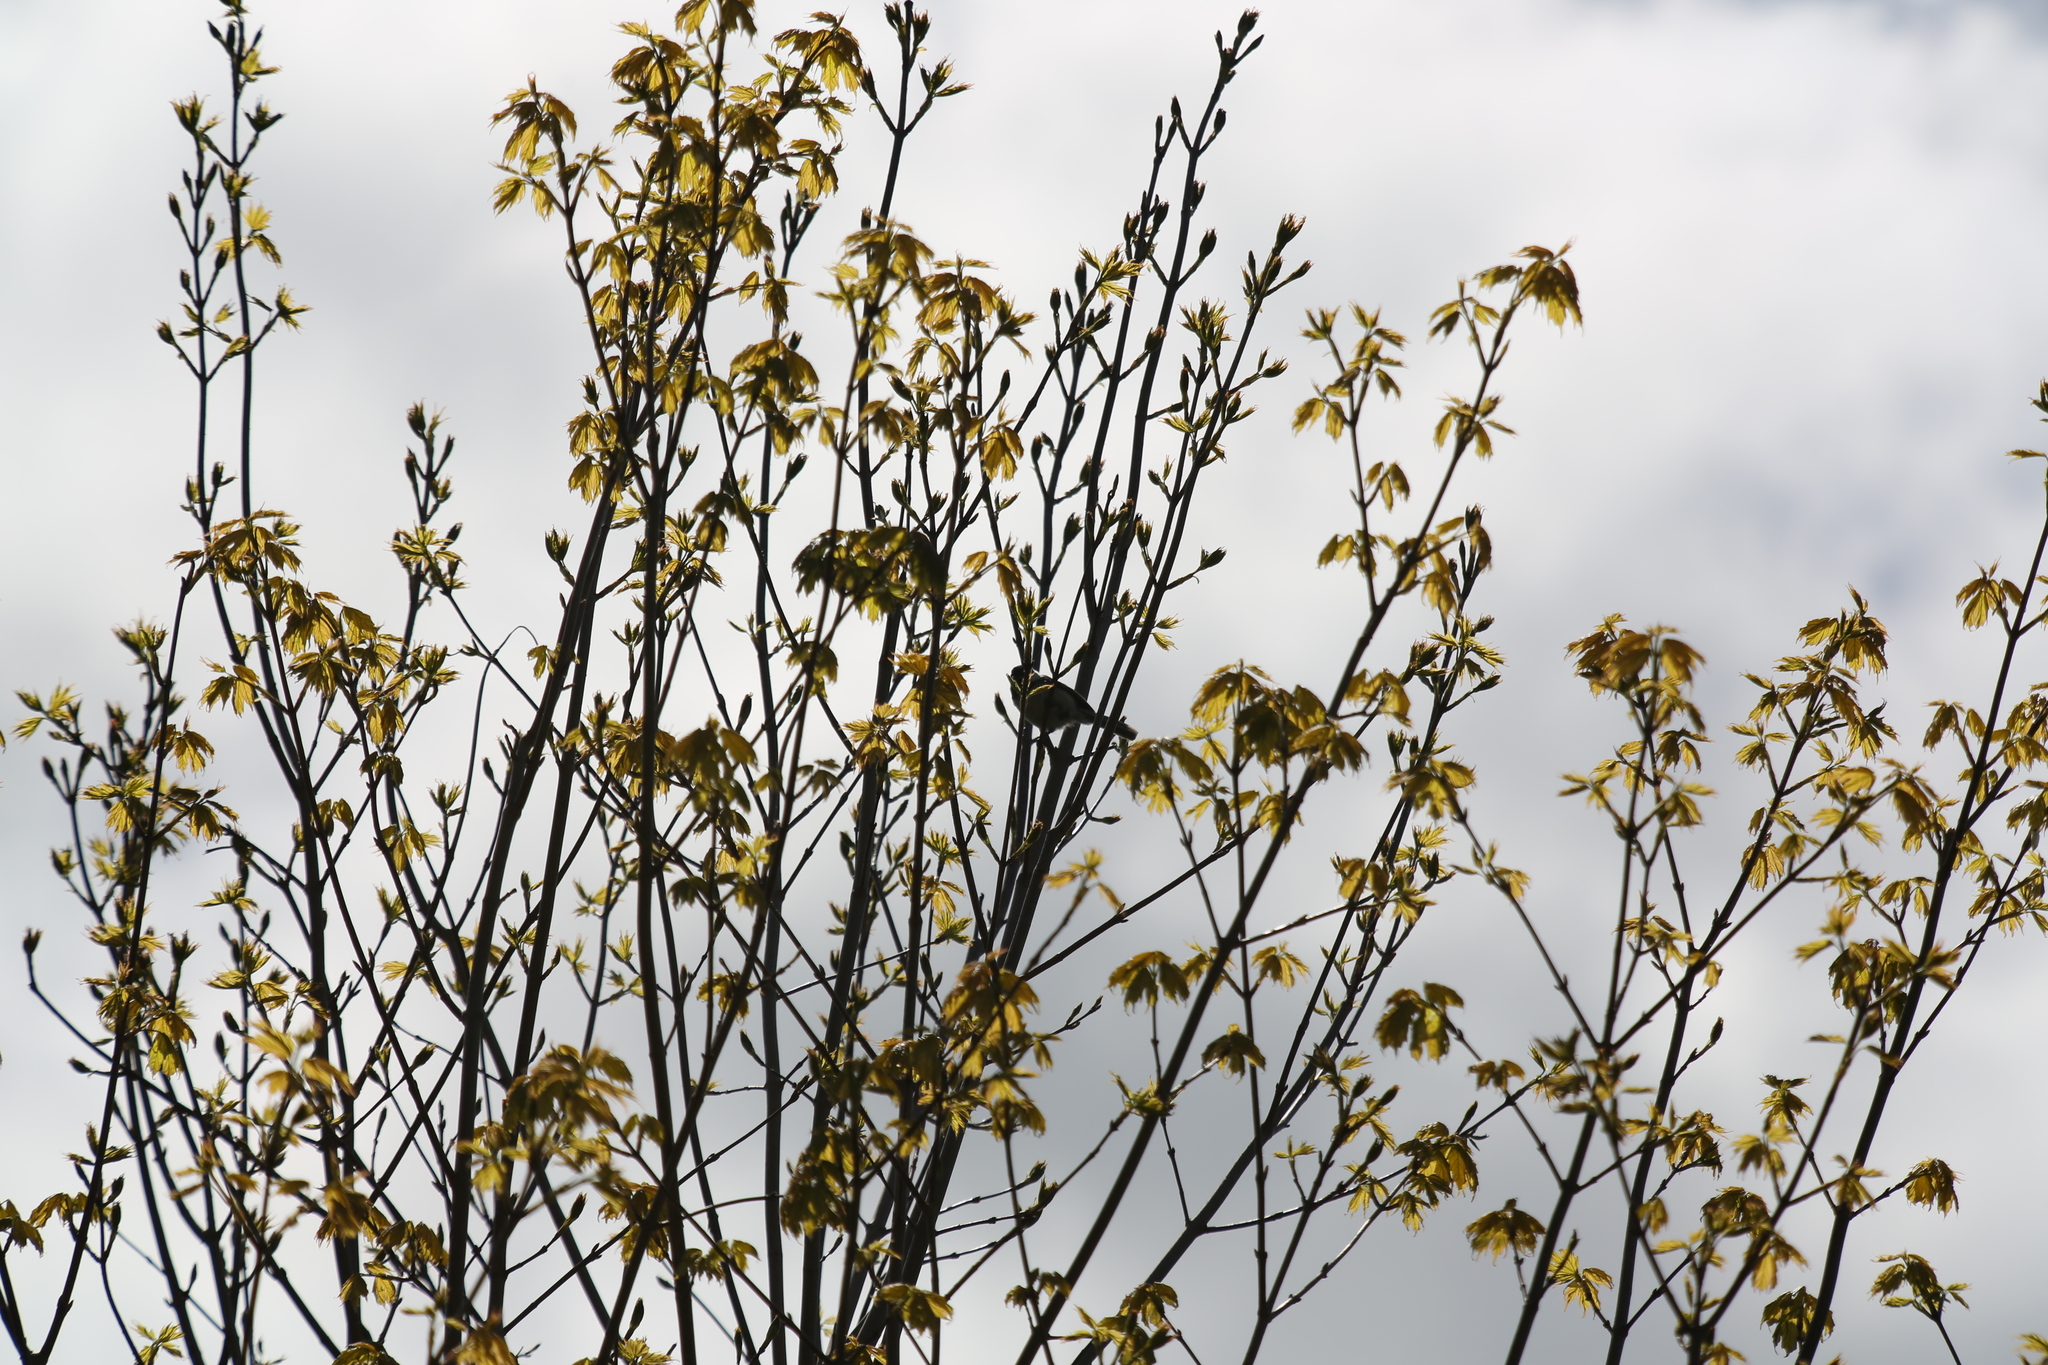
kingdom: Animalia
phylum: Chordata
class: Aves
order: Passeriformes
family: Paridae
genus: Poecile
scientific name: Poecile atricapillus
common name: Black-capped chickadee
